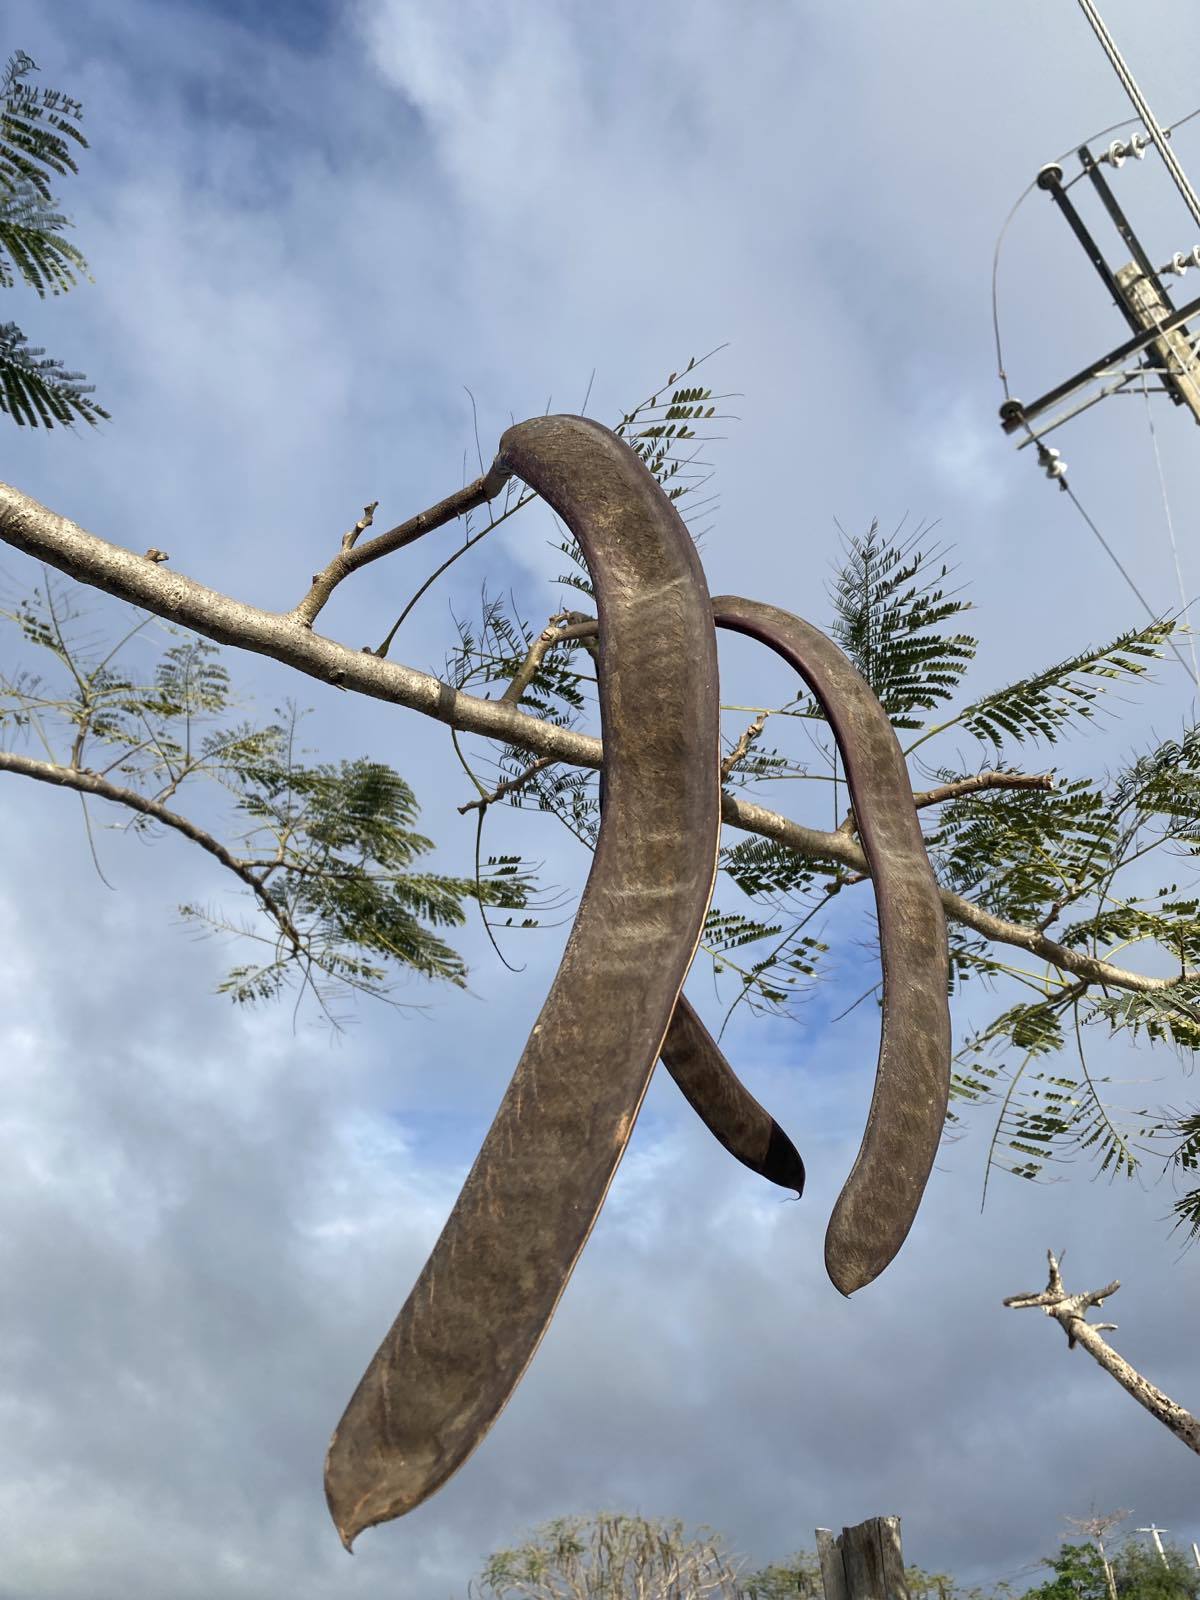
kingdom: Plantae
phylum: Tracheophyta
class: Magnoliopsida
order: Fabales
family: Fabaceae
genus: Delonix
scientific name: Delonix regia
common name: Royal poinciana
